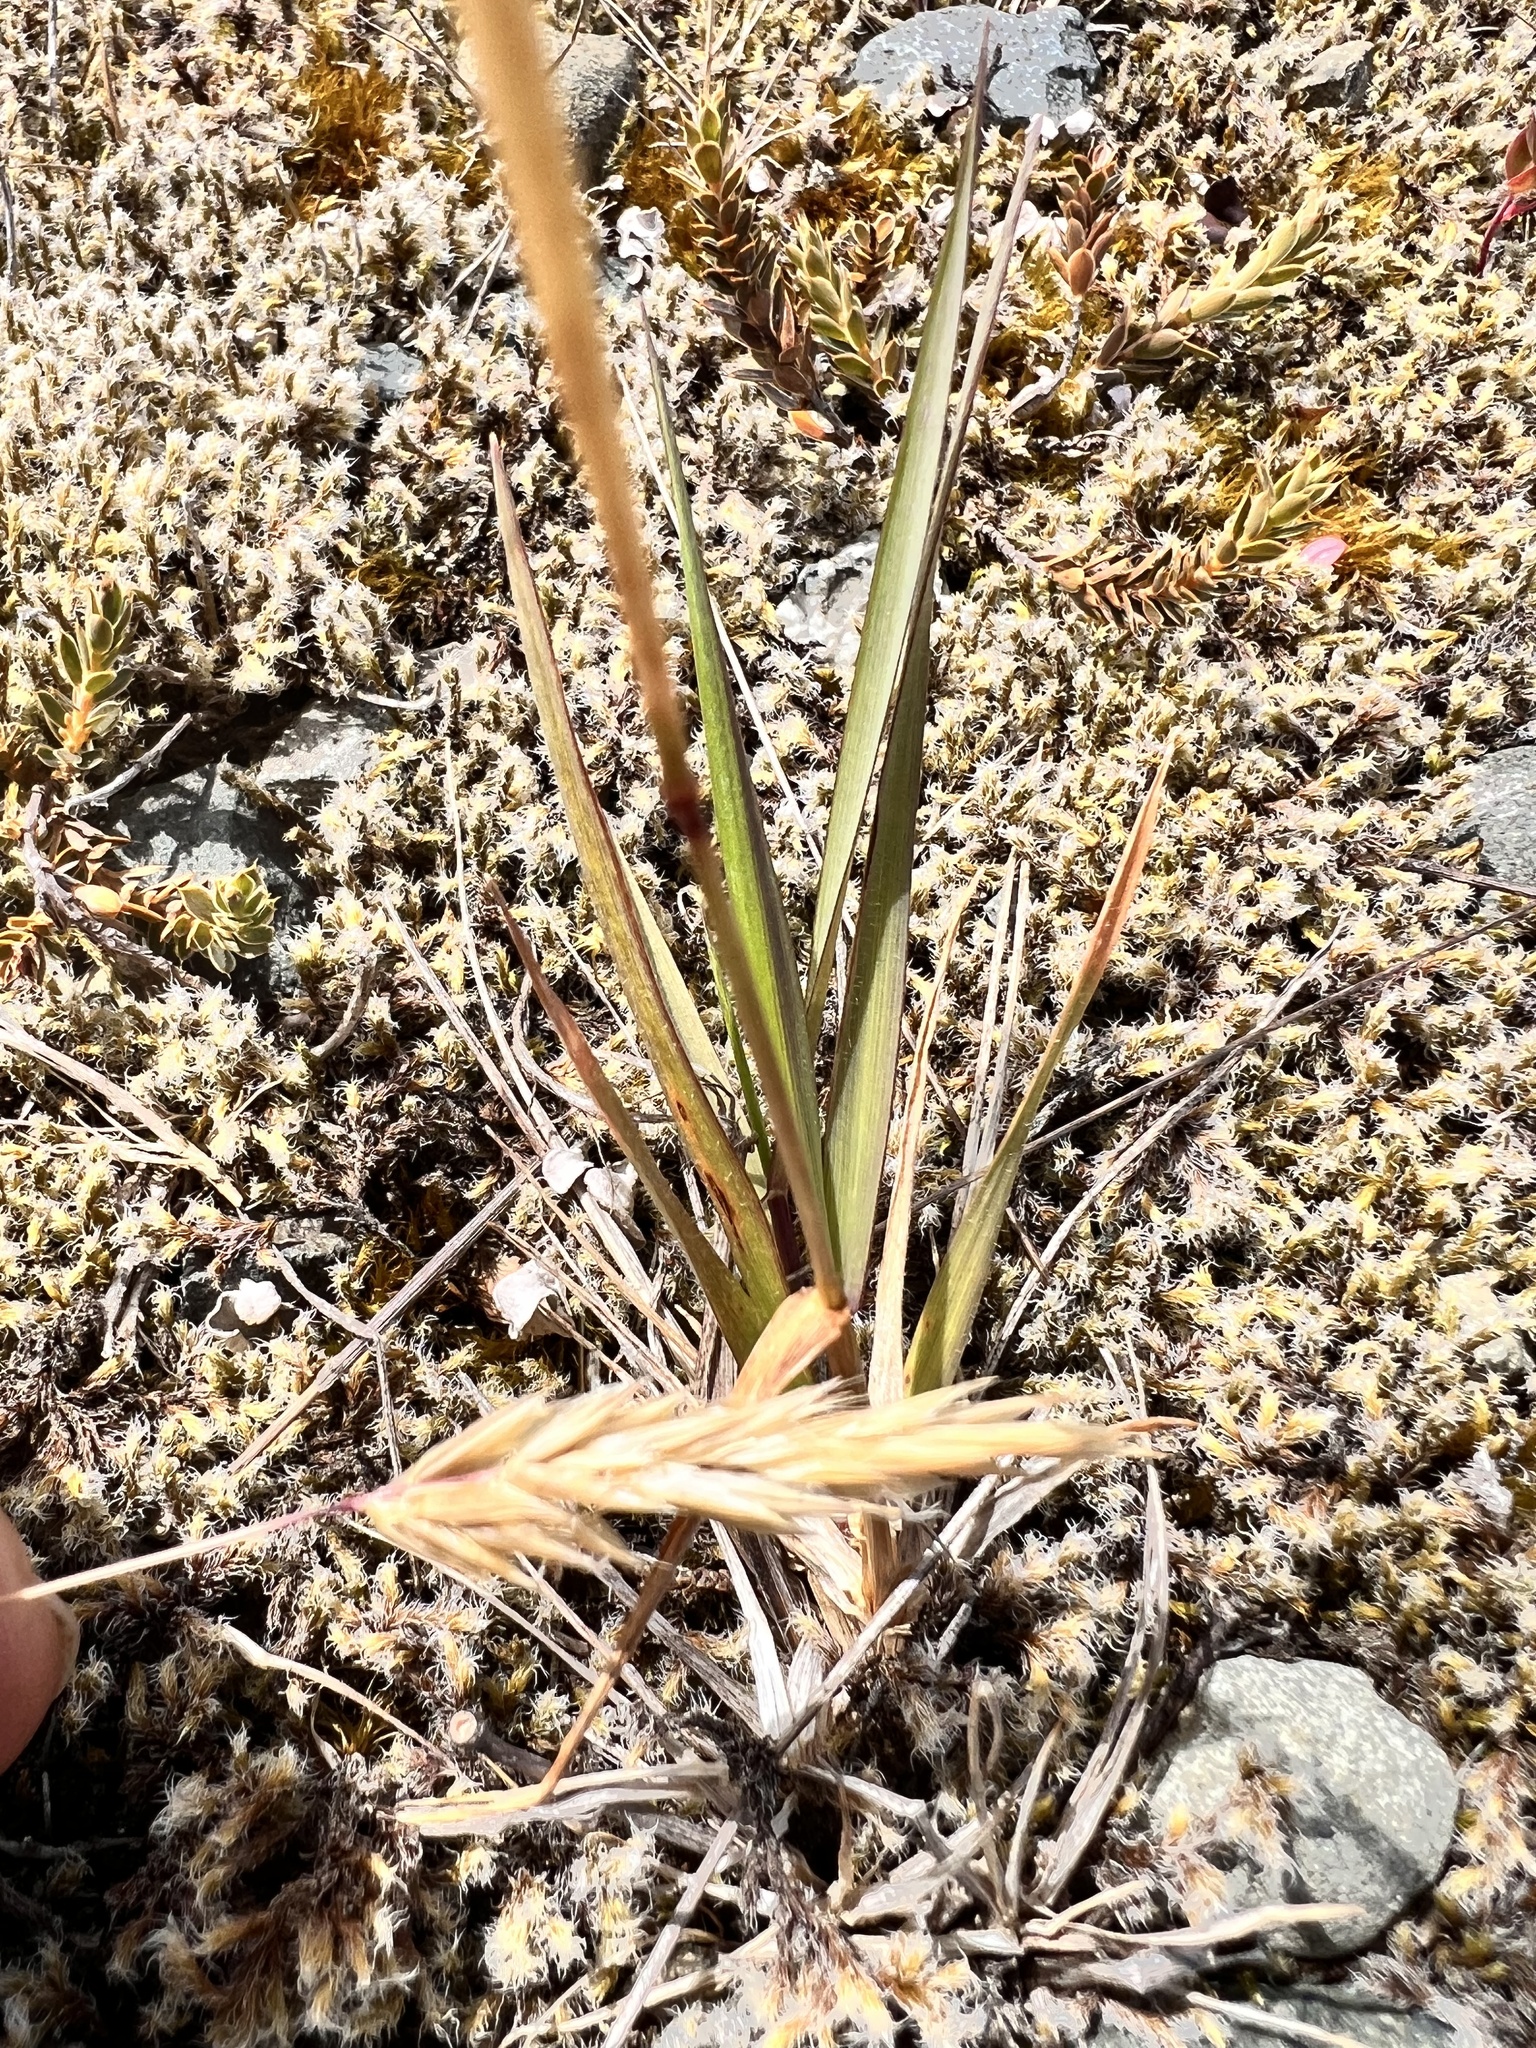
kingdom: Plantae
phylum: Tracheophyta
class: Liliopsida
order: Poales
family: Poaceae
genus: Anthoxanthum
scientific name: Anthoxanthum redolens
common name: Sweet holy grass
